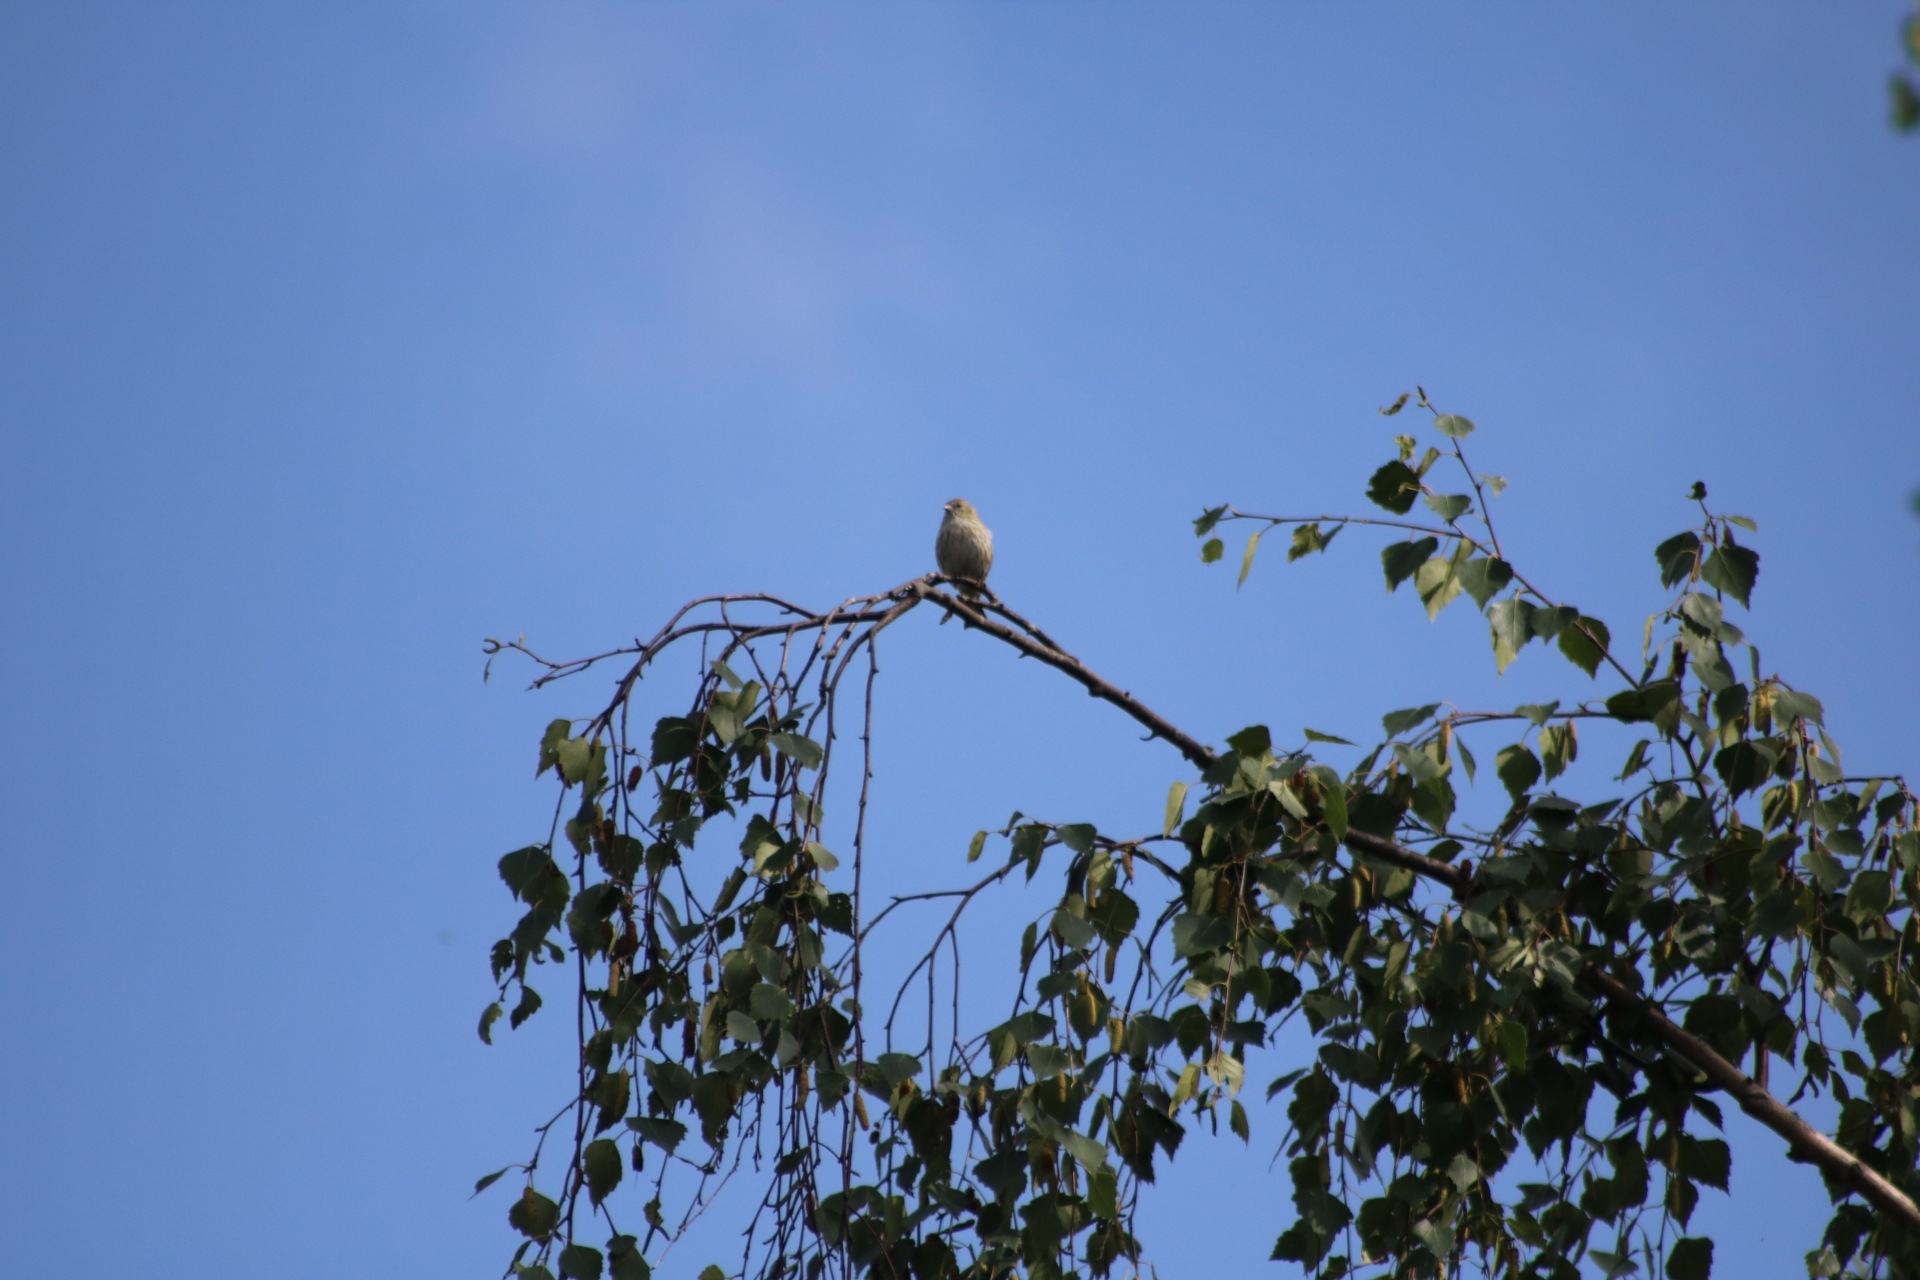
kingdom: Animalia
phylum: Chordata
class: Aves
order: Passeriformes
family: Fringillidae
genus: Spinus
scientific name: Spinus spinus
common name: Eurasian siskin
